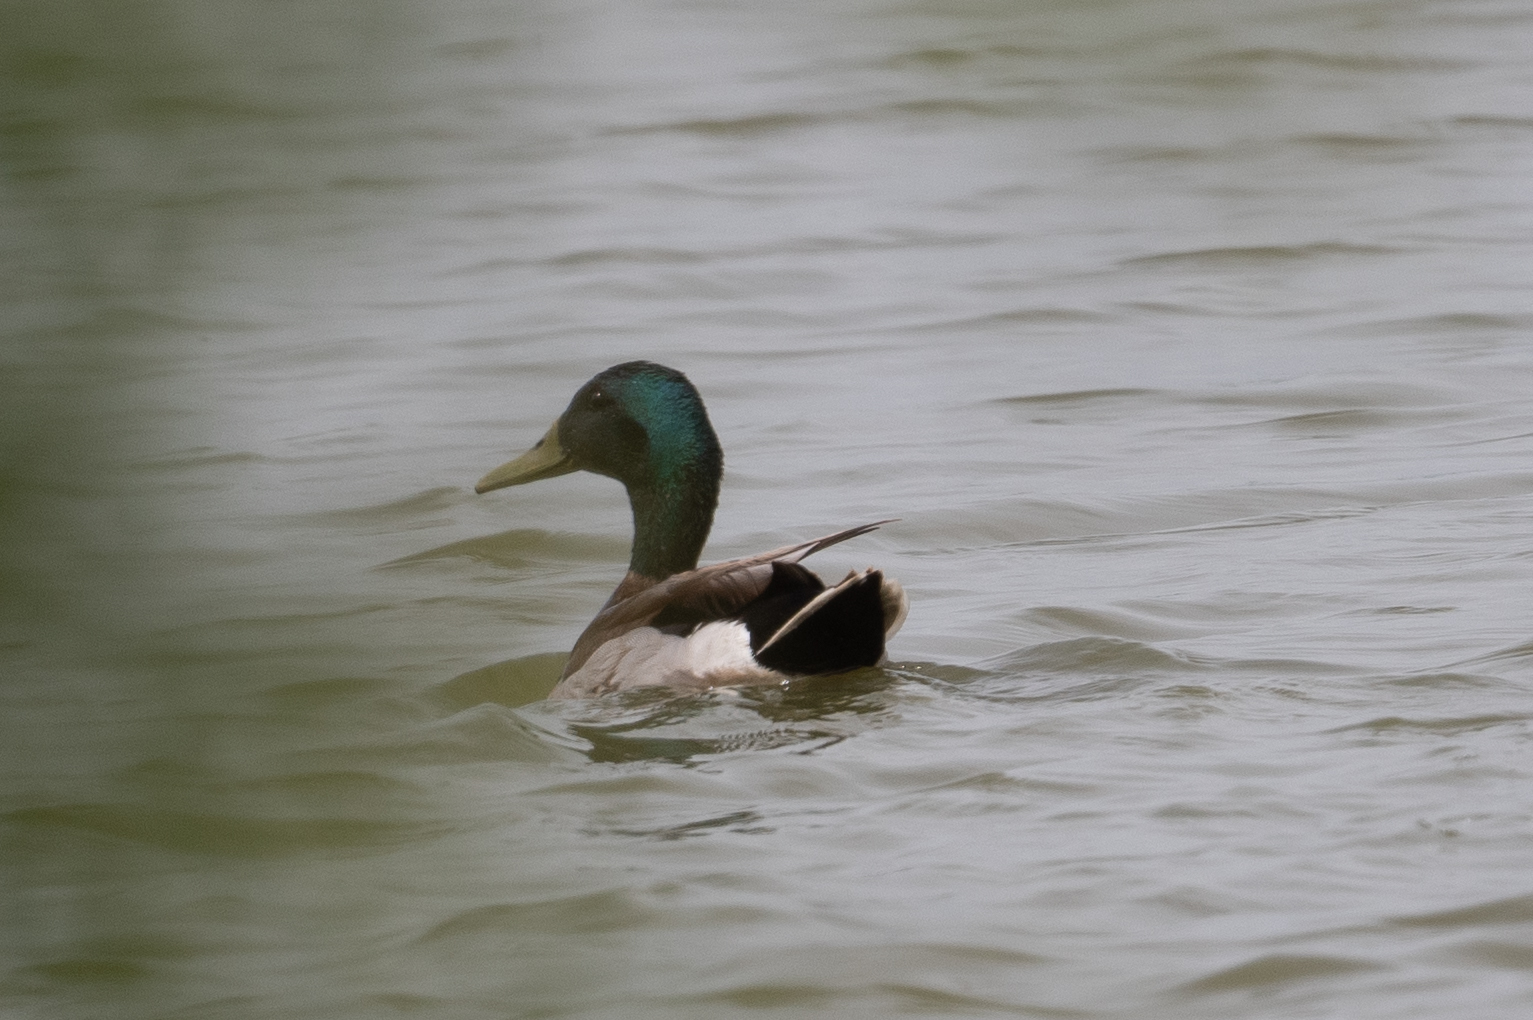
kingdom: Animalia
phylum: Chordata
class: Aves
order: Anseriformes
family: Anatidae
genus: Anas
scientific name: Anas platyrhynchos
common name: Mallard
